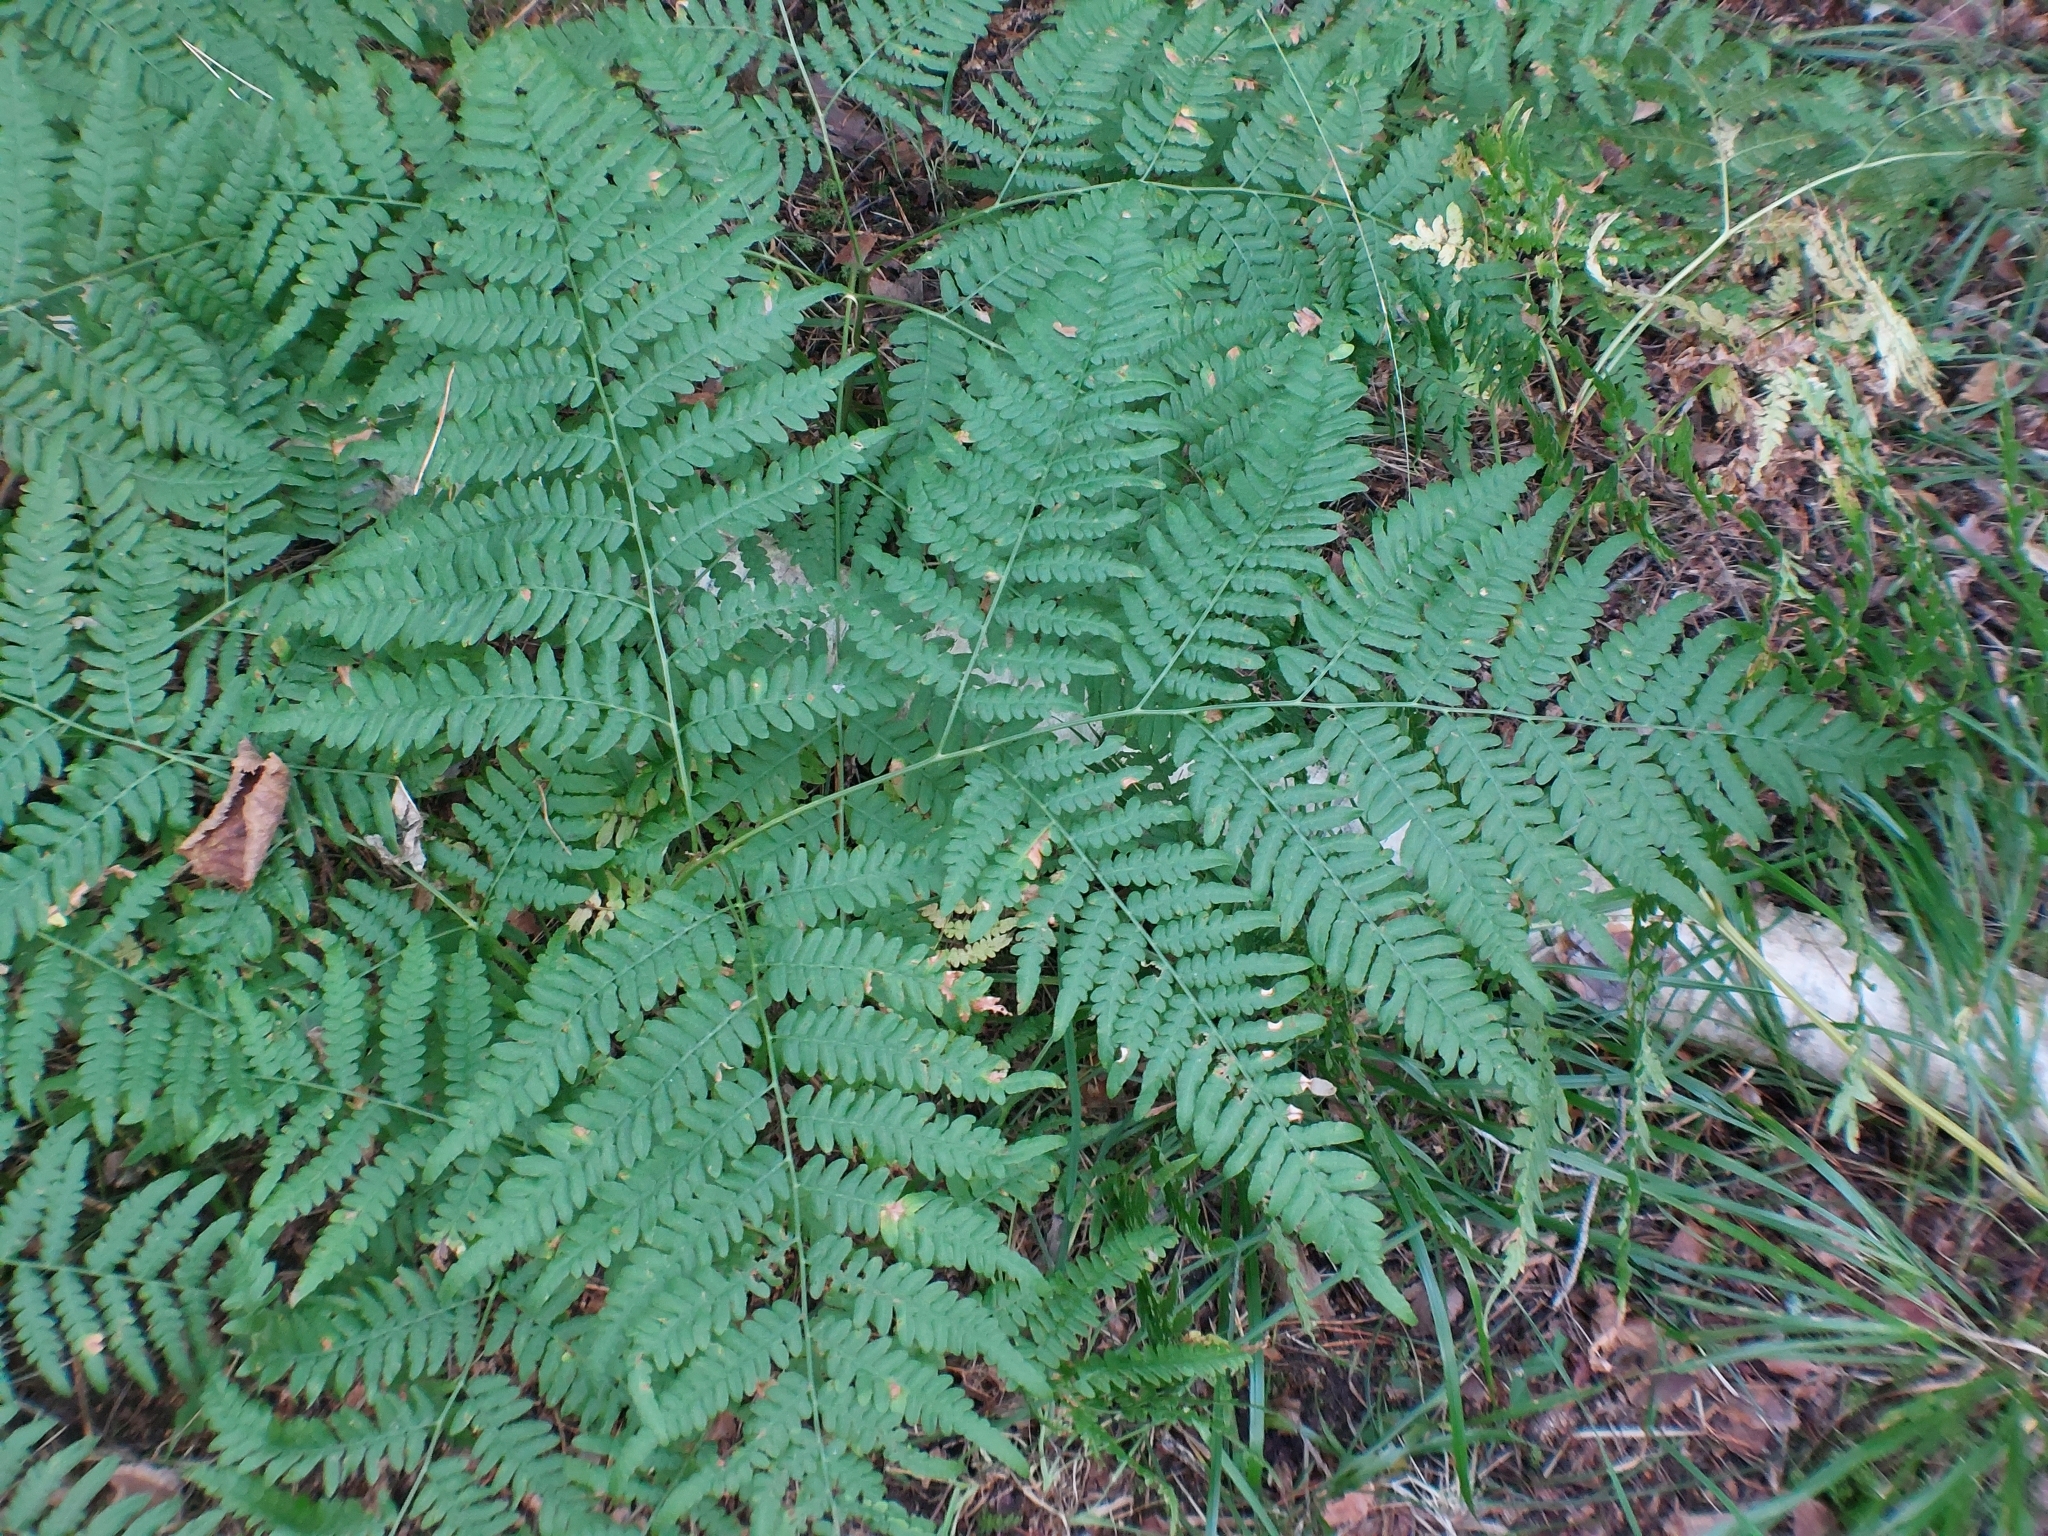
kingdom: Plantae
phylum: Tracheophyta
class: Polypodiopsida
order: Polypodiales
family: Dennstaedtiaceae
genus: Pteridium
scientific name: Pteridium aquilinum
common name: Bracken
